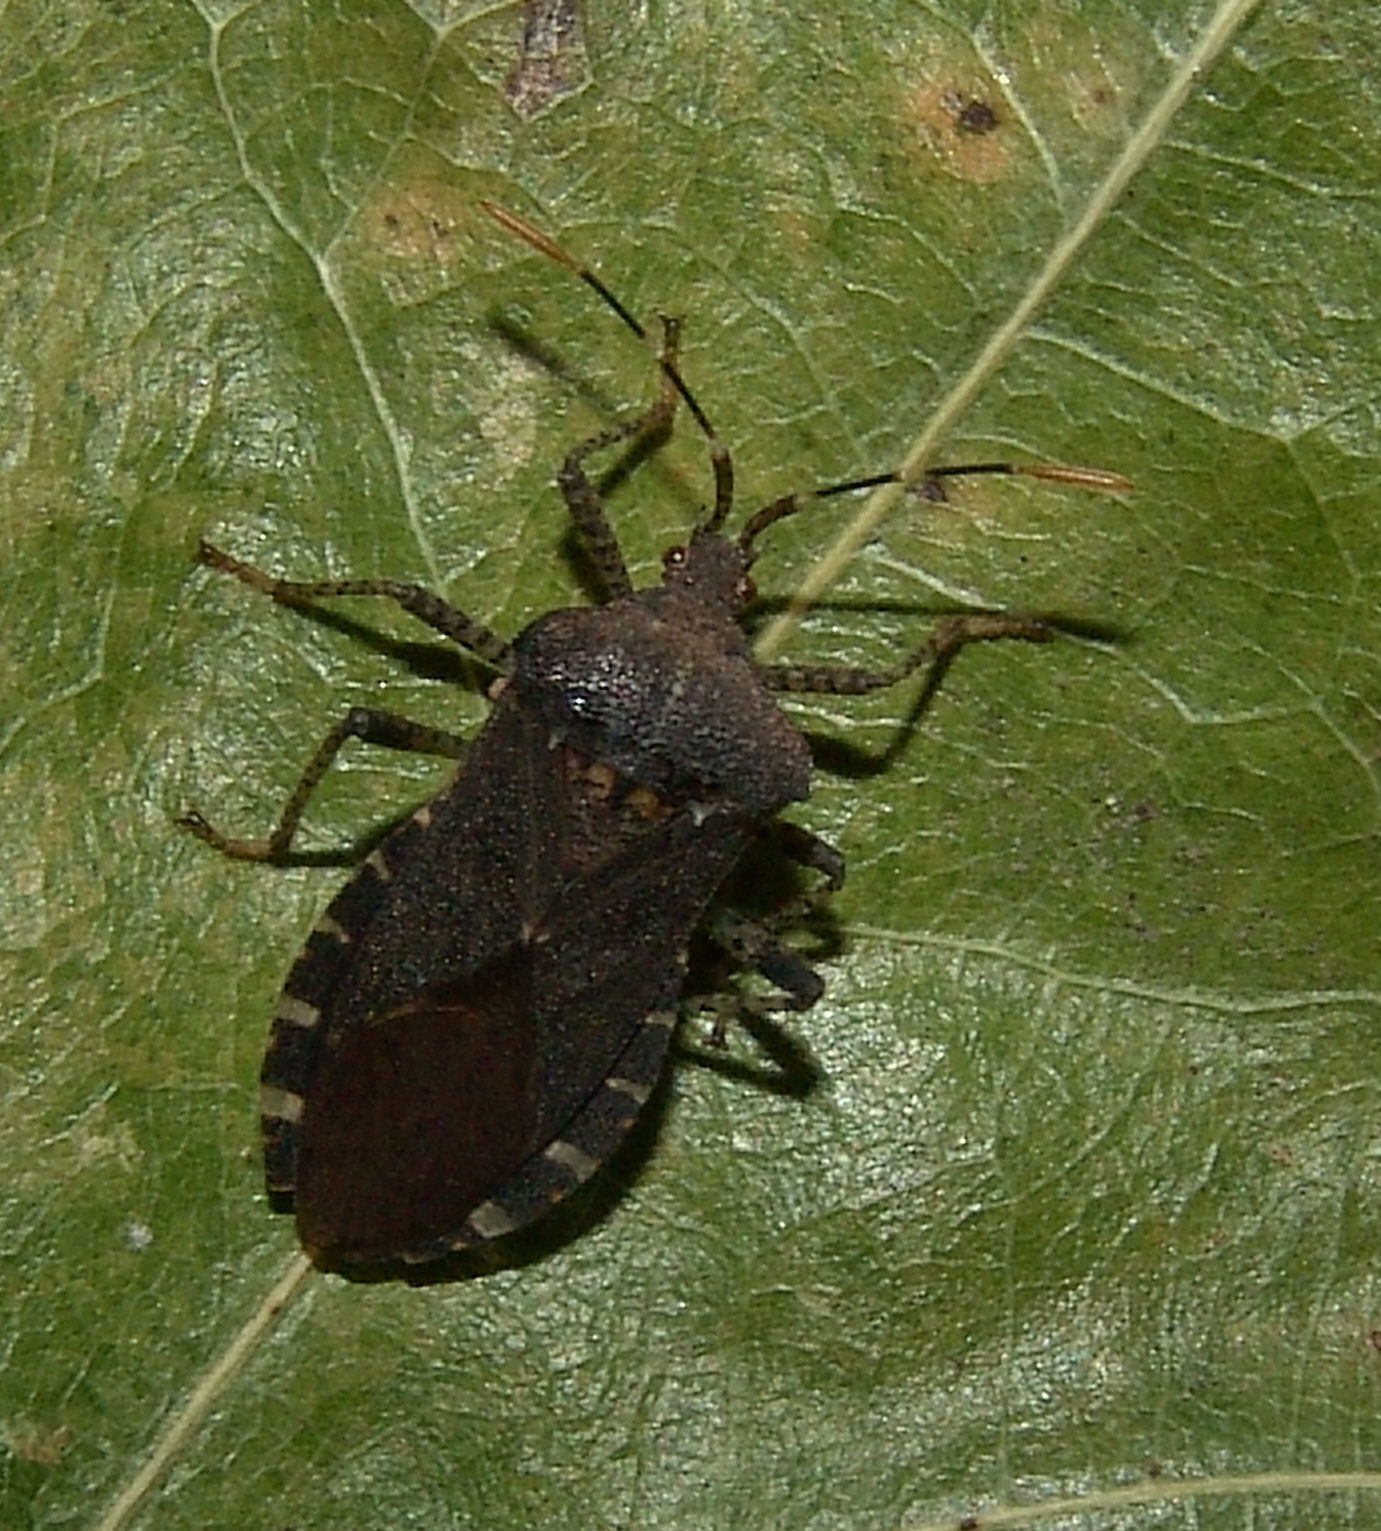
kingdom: Animalia
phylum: Arthropoda
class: Insecta
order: Hemiptera
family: Coreidae
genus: Anasa
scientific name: Anasa armigera
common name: Horned squash bug
